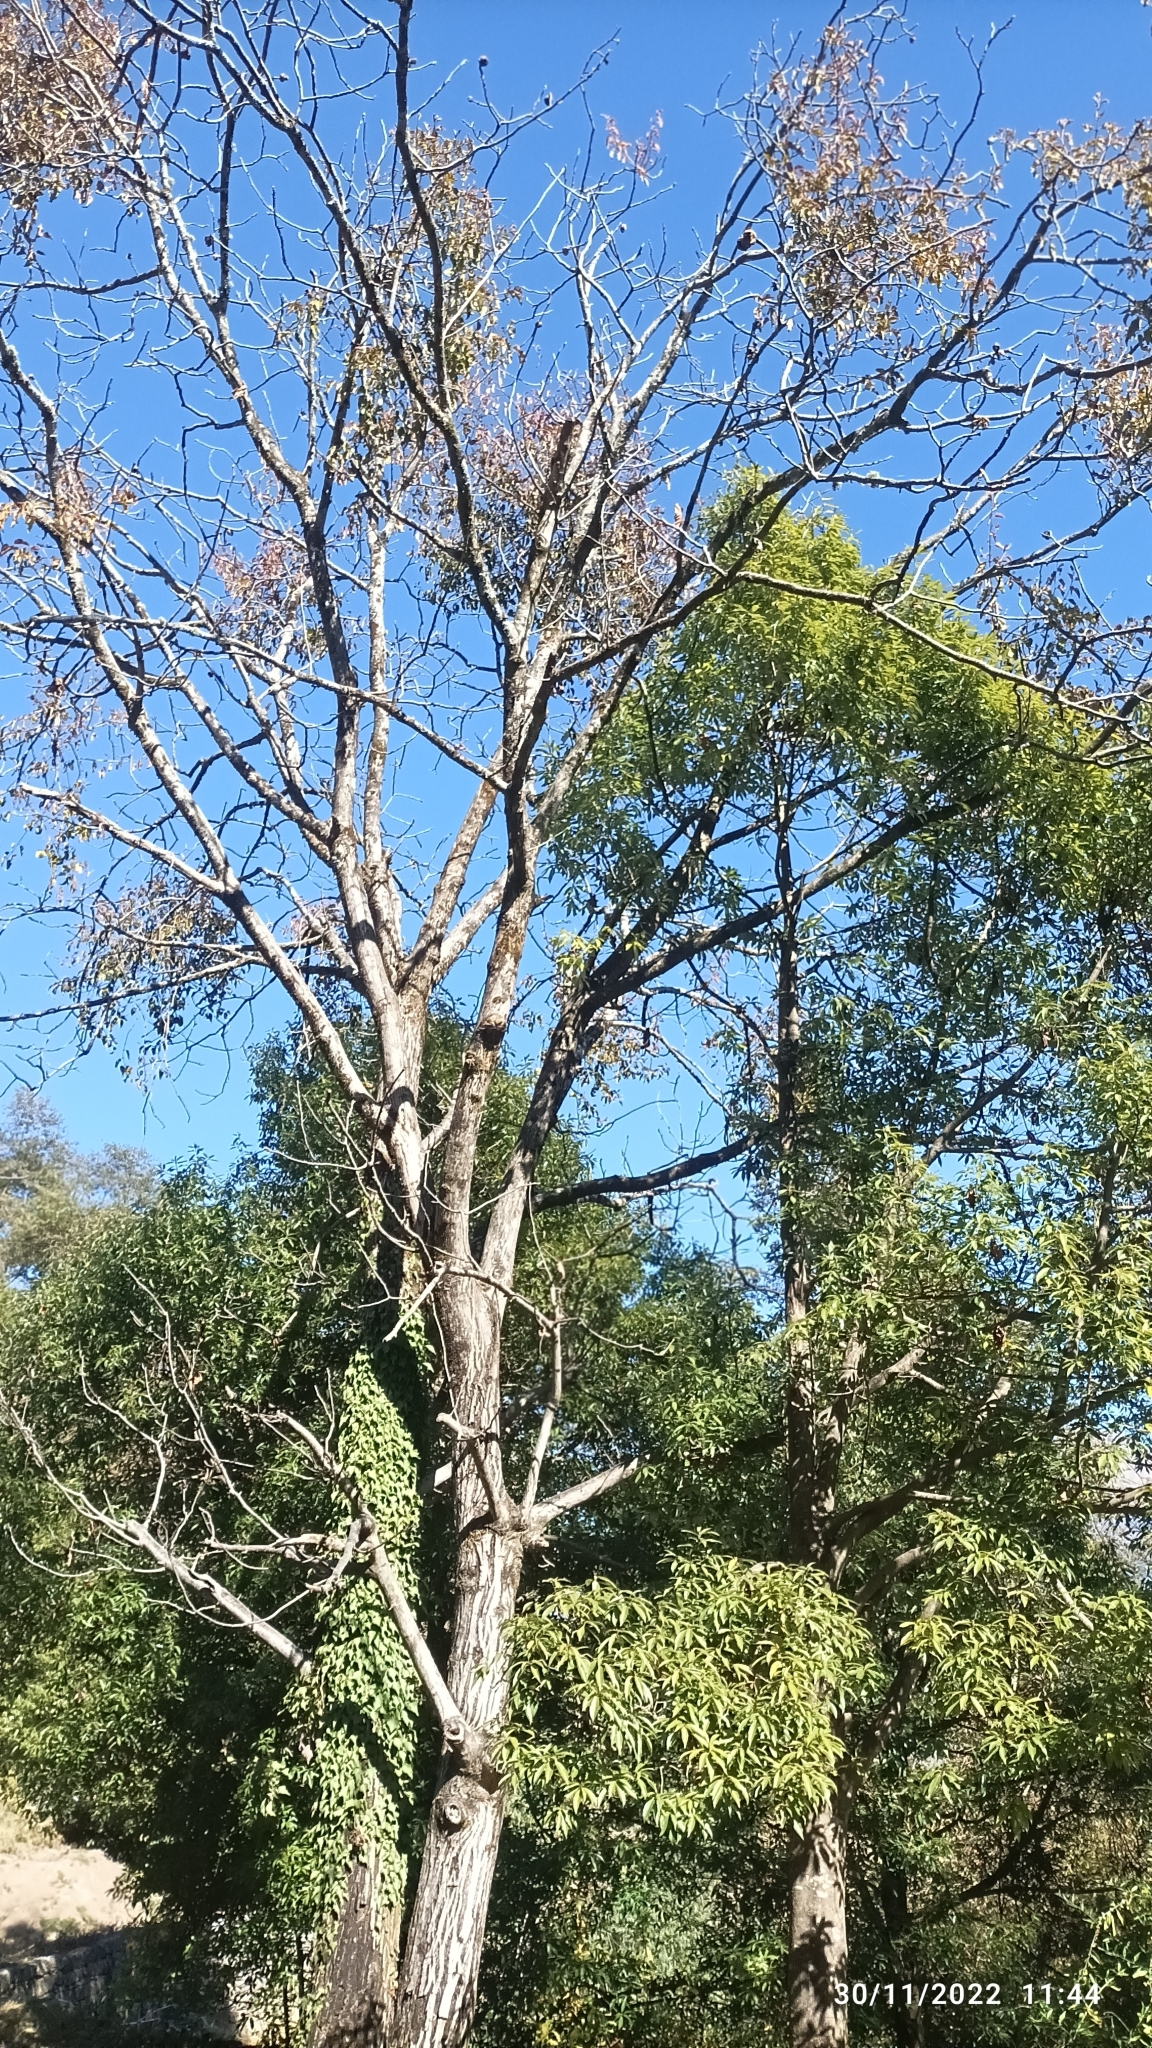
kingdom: Plantae
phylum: Tracheophyta
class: Magnoliopsida
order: Fagales
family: Juglandaceae
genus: Juglans
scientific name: Juglans regia
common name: Walnut
